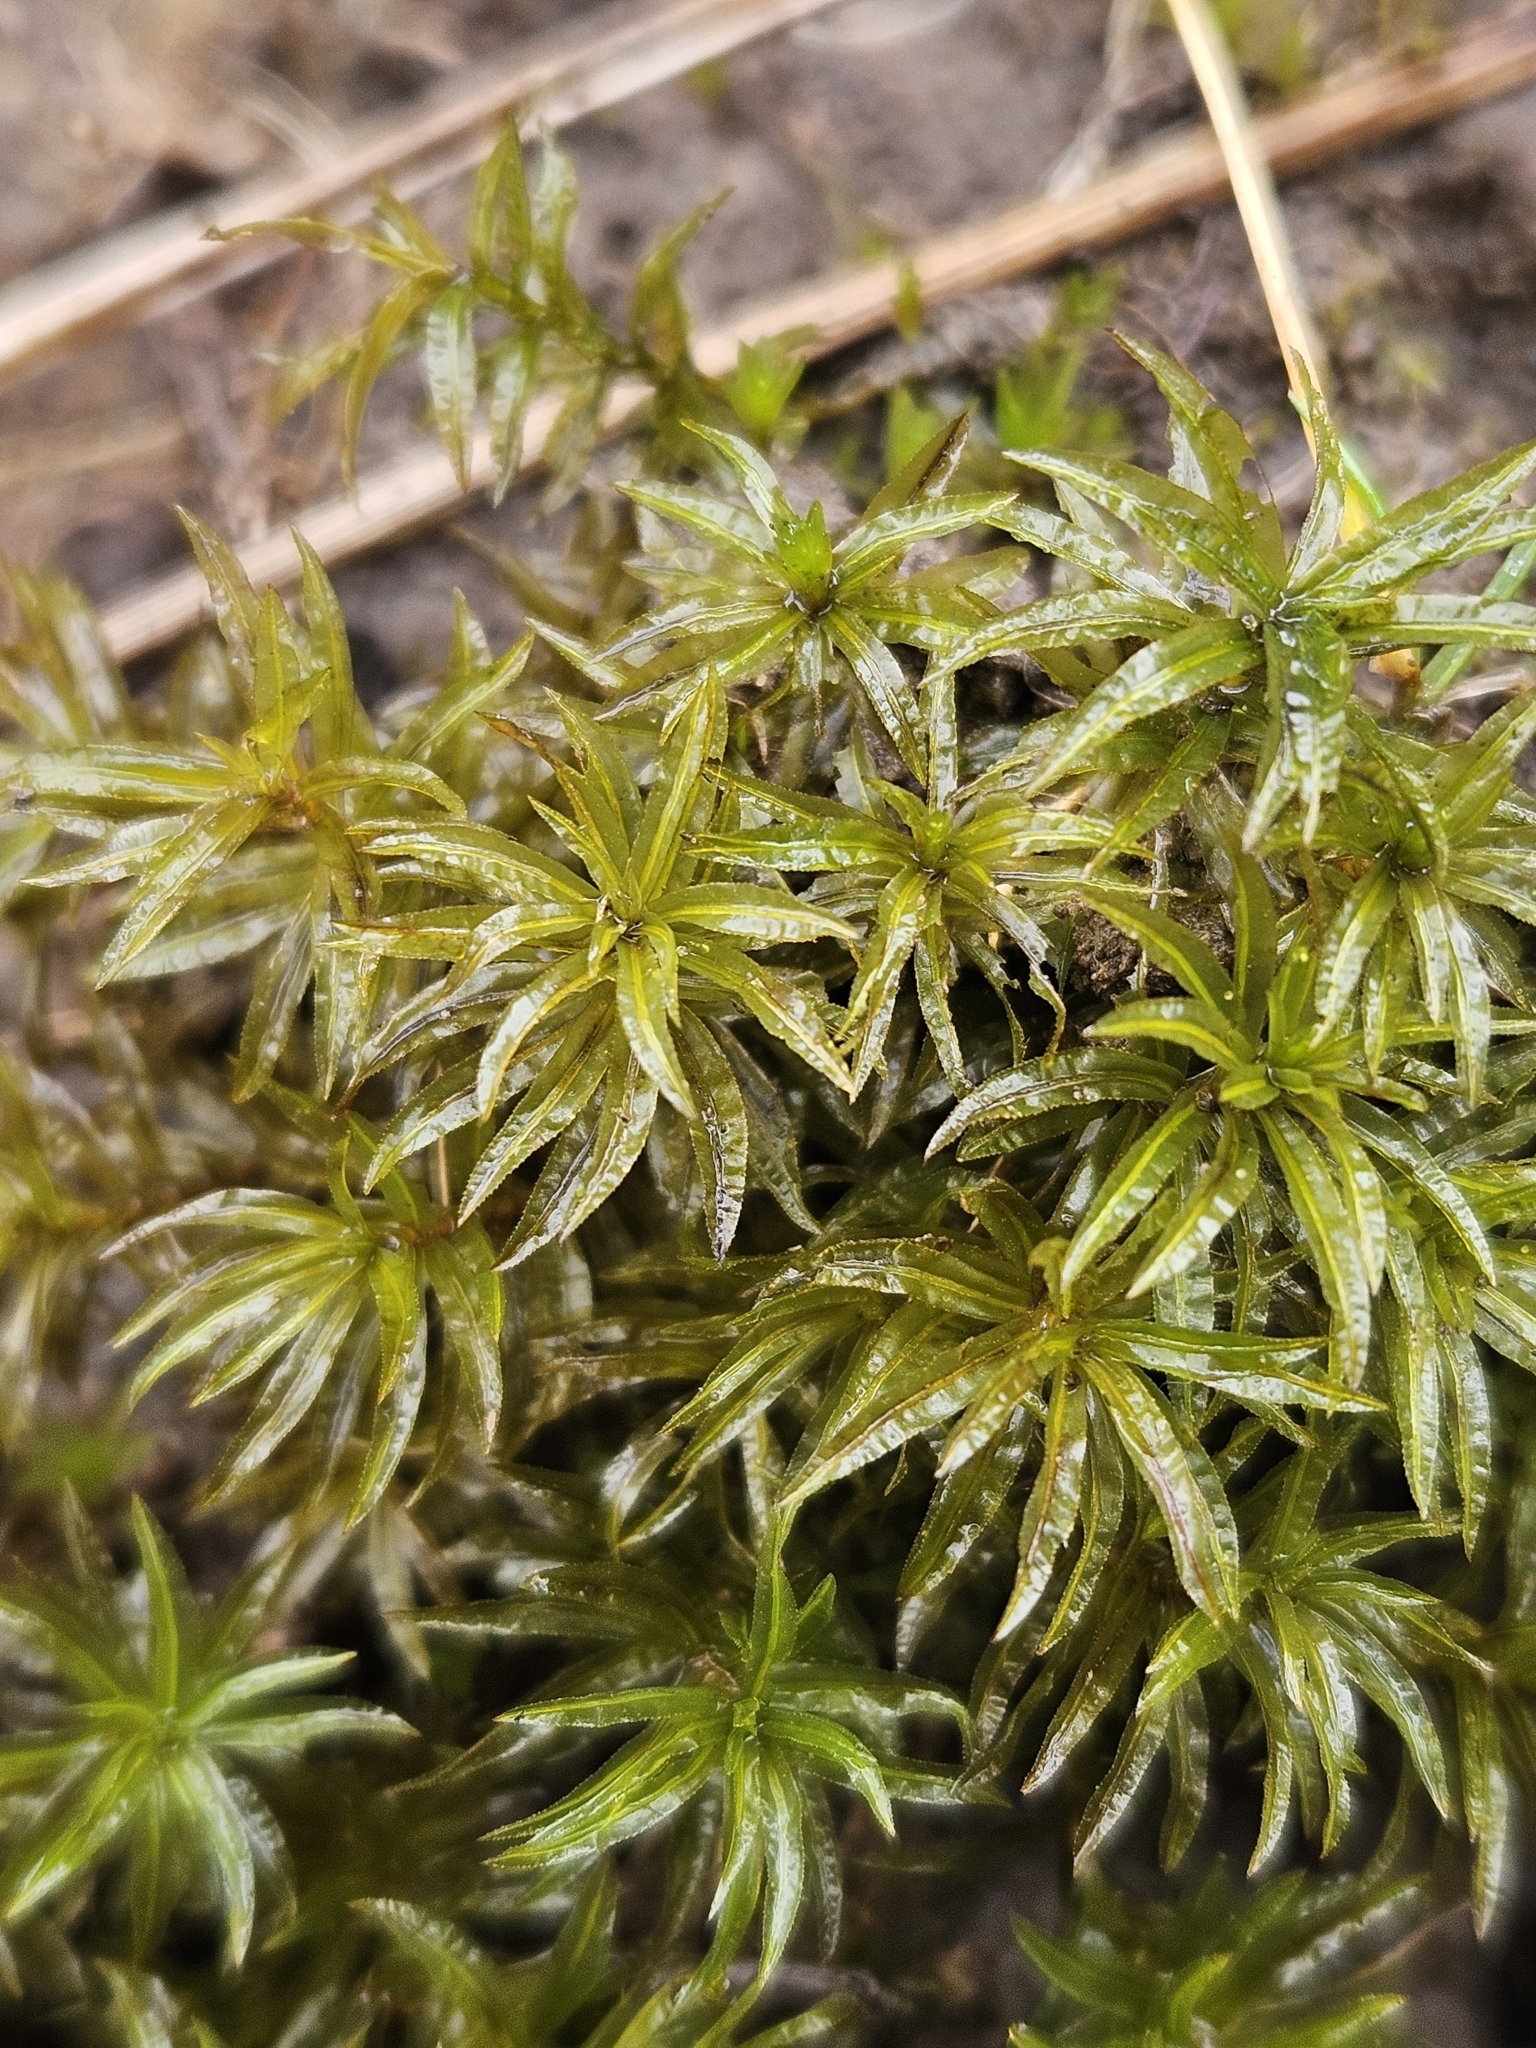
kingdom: Plantae
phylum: Bryophyta
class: Polytrichopsida
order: Polytrichales
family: Polytrichaceae
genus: Atrichum
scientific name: Atrichum undulatum
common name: Common smoothcap
